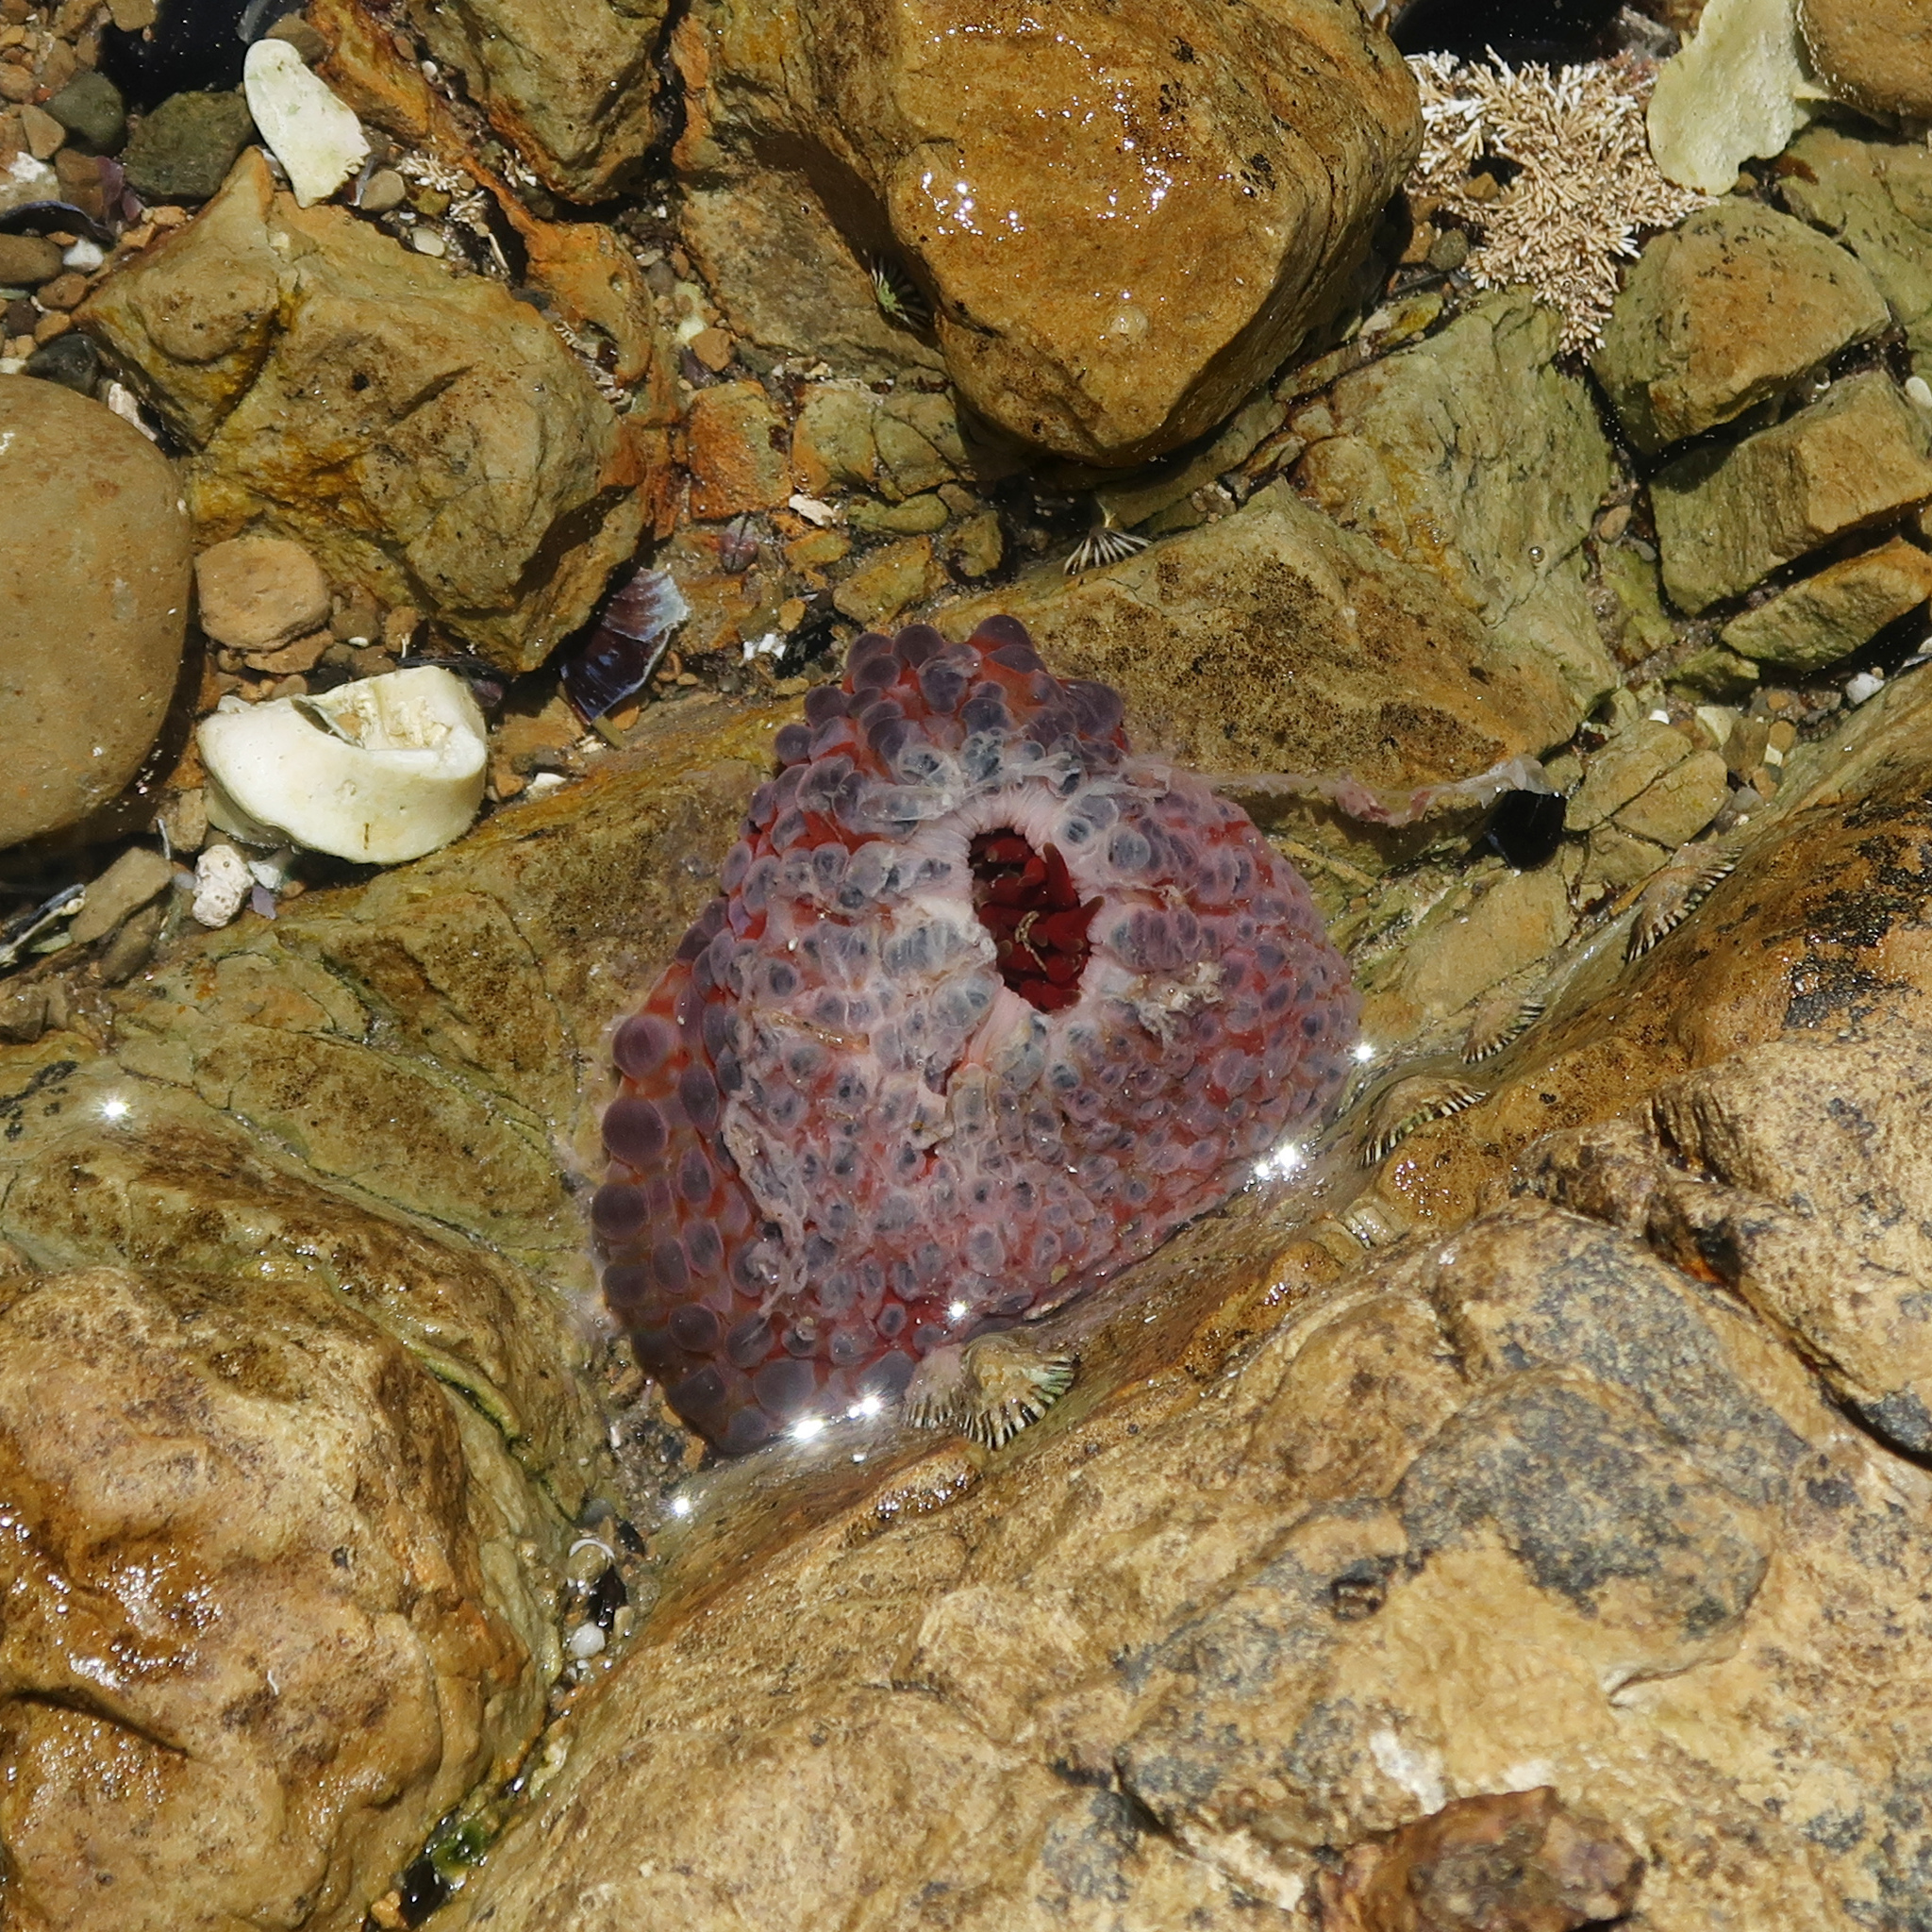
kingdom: Animalia
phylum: Cnidaria
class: Anthozoa
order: Actiniaria
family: Actiniidae
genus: Phlyctenanthus
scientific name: Phlyctenanthus australis
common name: Southern anemone
